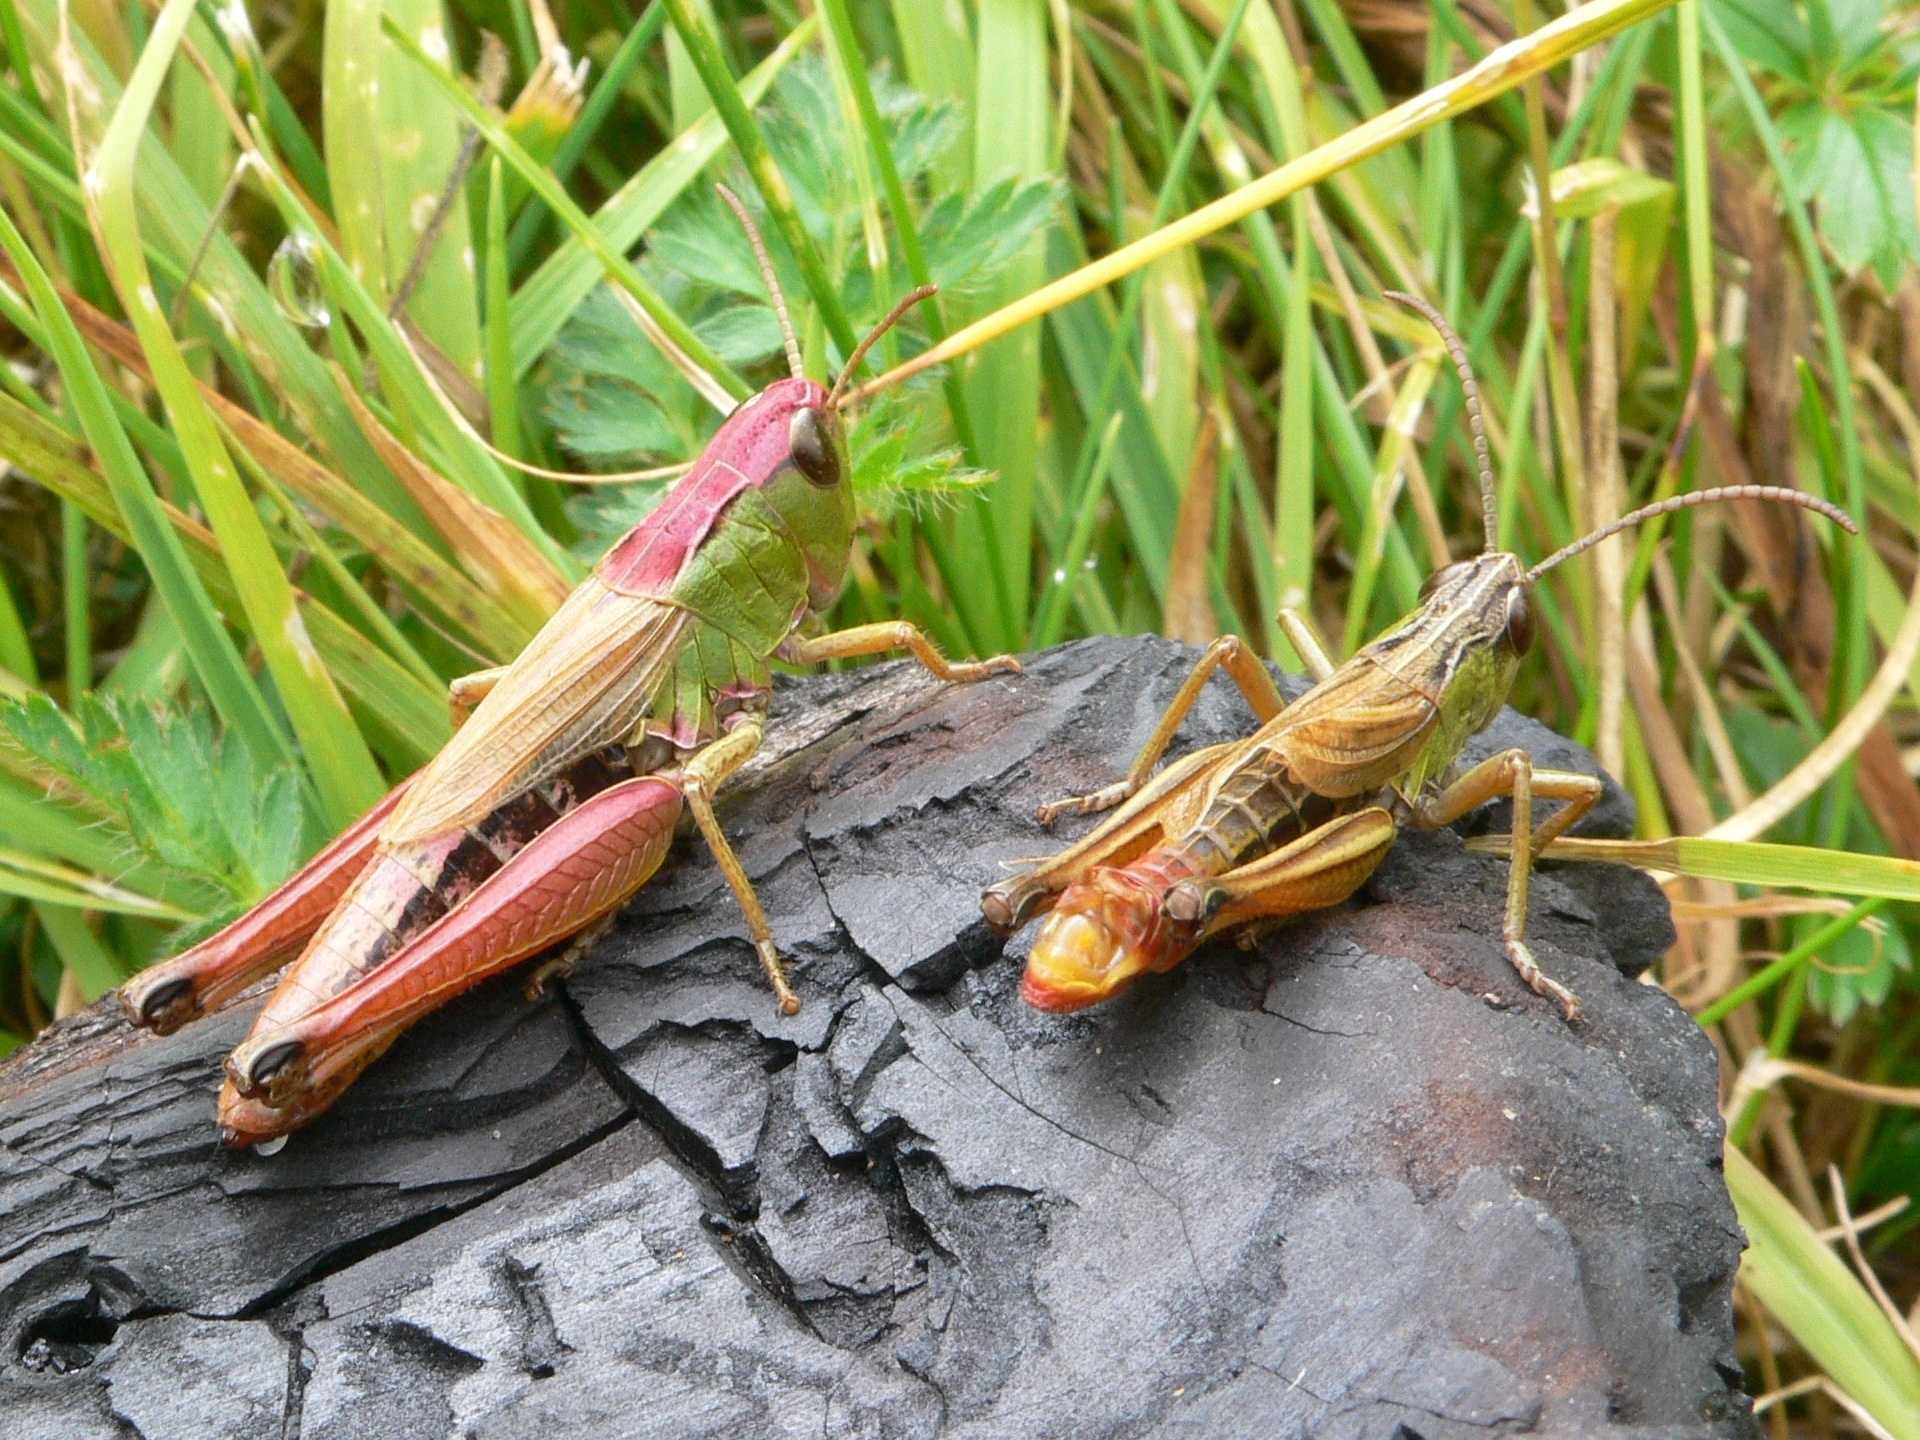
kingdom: Animalia
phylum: Arthropoda
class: Insecta
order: Orthoptera
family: Acrididae
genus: Pseudochorthippus
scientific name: Pseudochorthippus parallelus
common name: Meadow grasshopper
